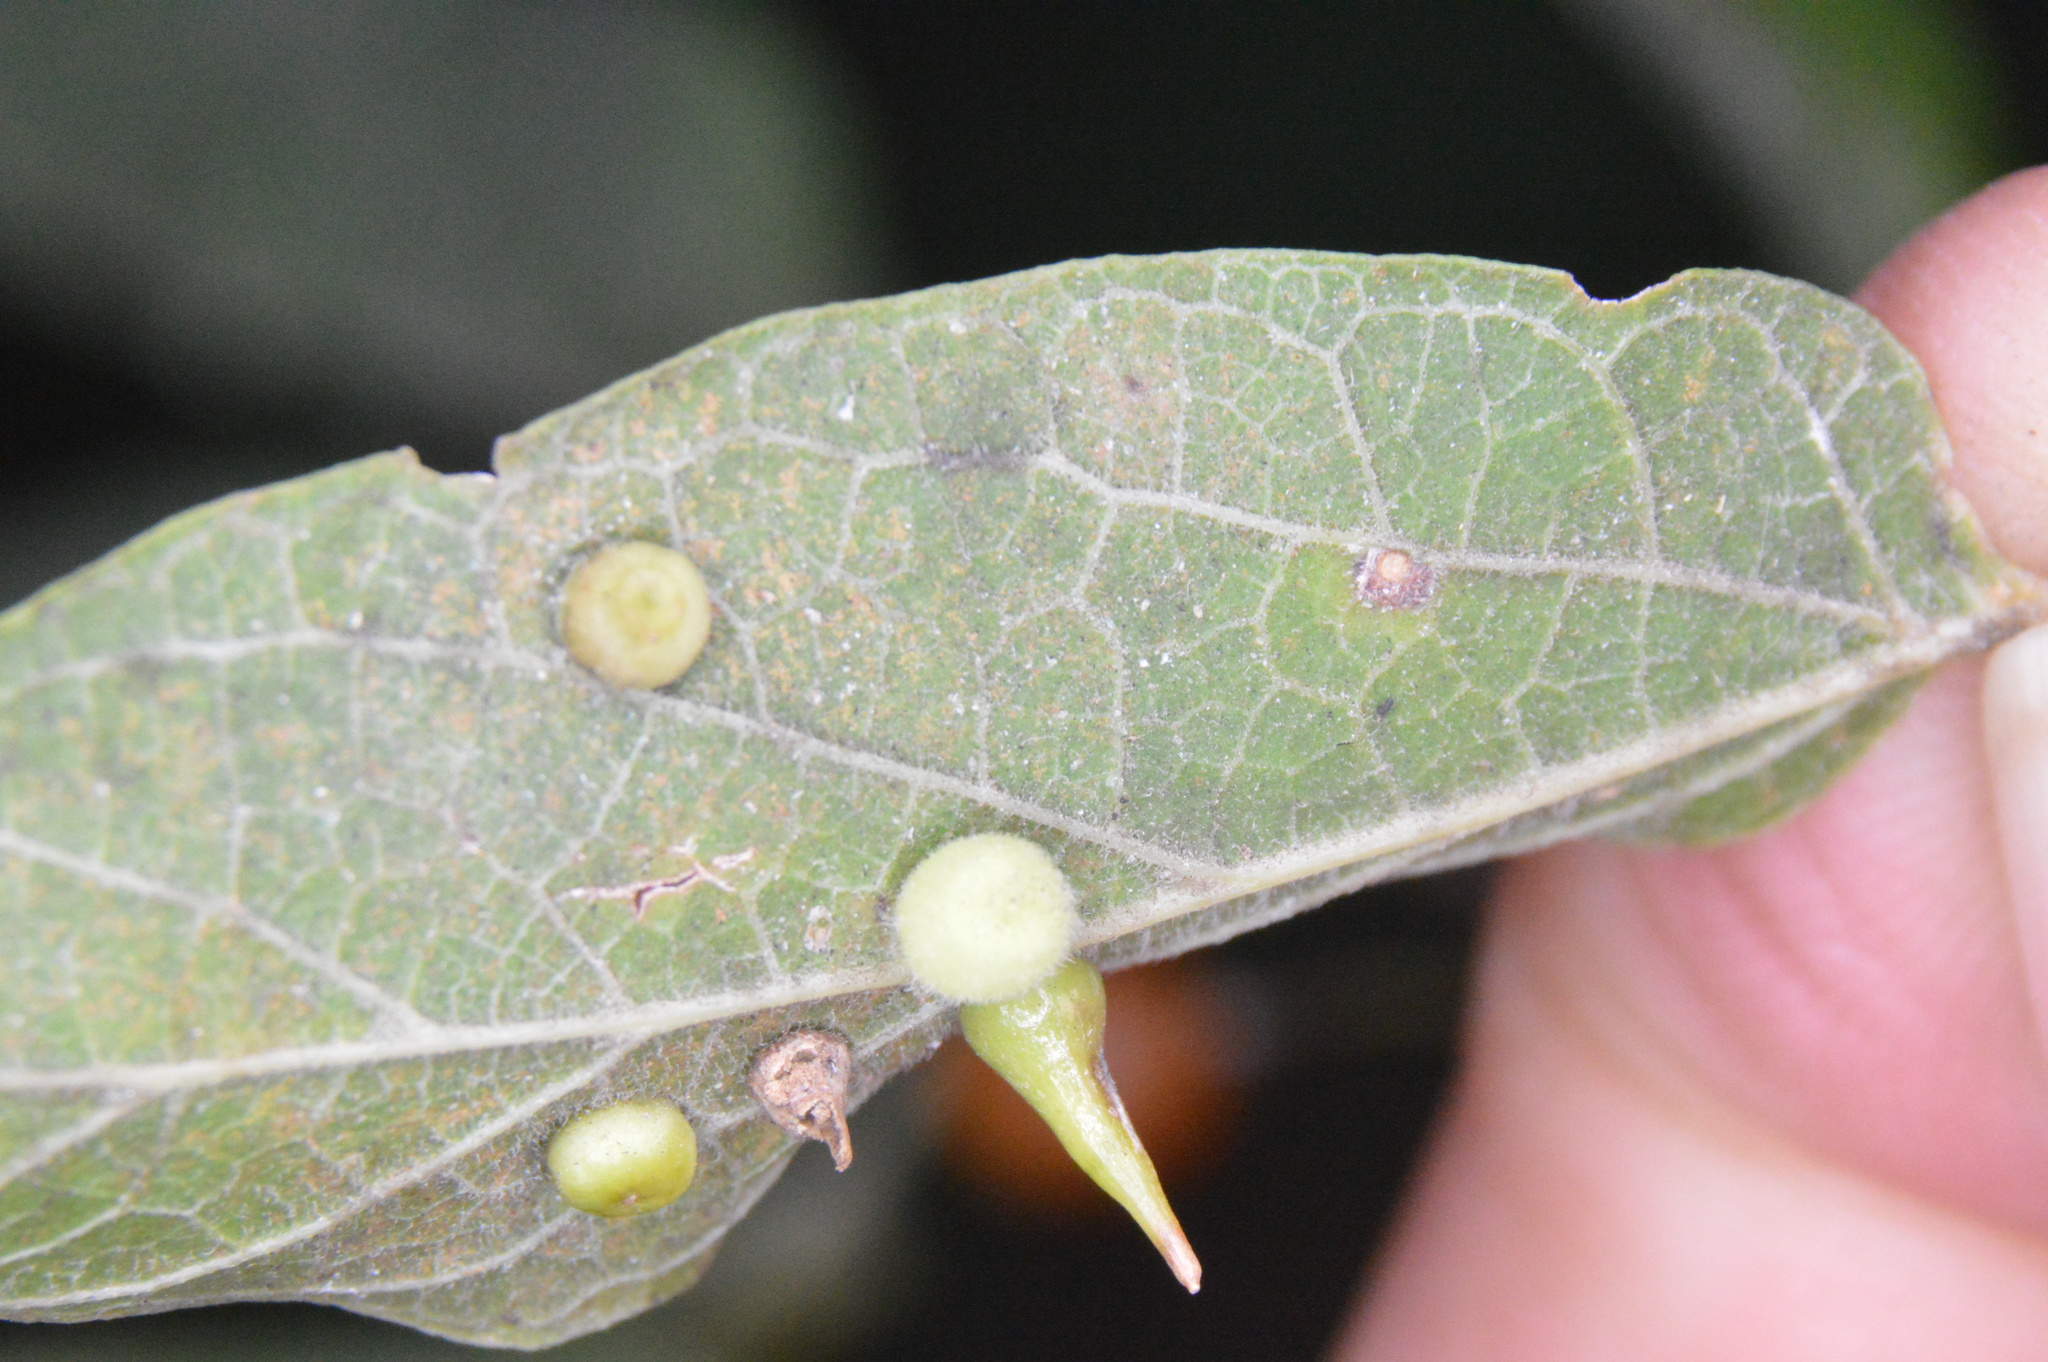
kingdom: Animalia
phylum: Arthropoda
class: Insecta
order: Diptera
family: Cecidomyiidae
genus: Celticecis
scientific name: Celticecis globosa
